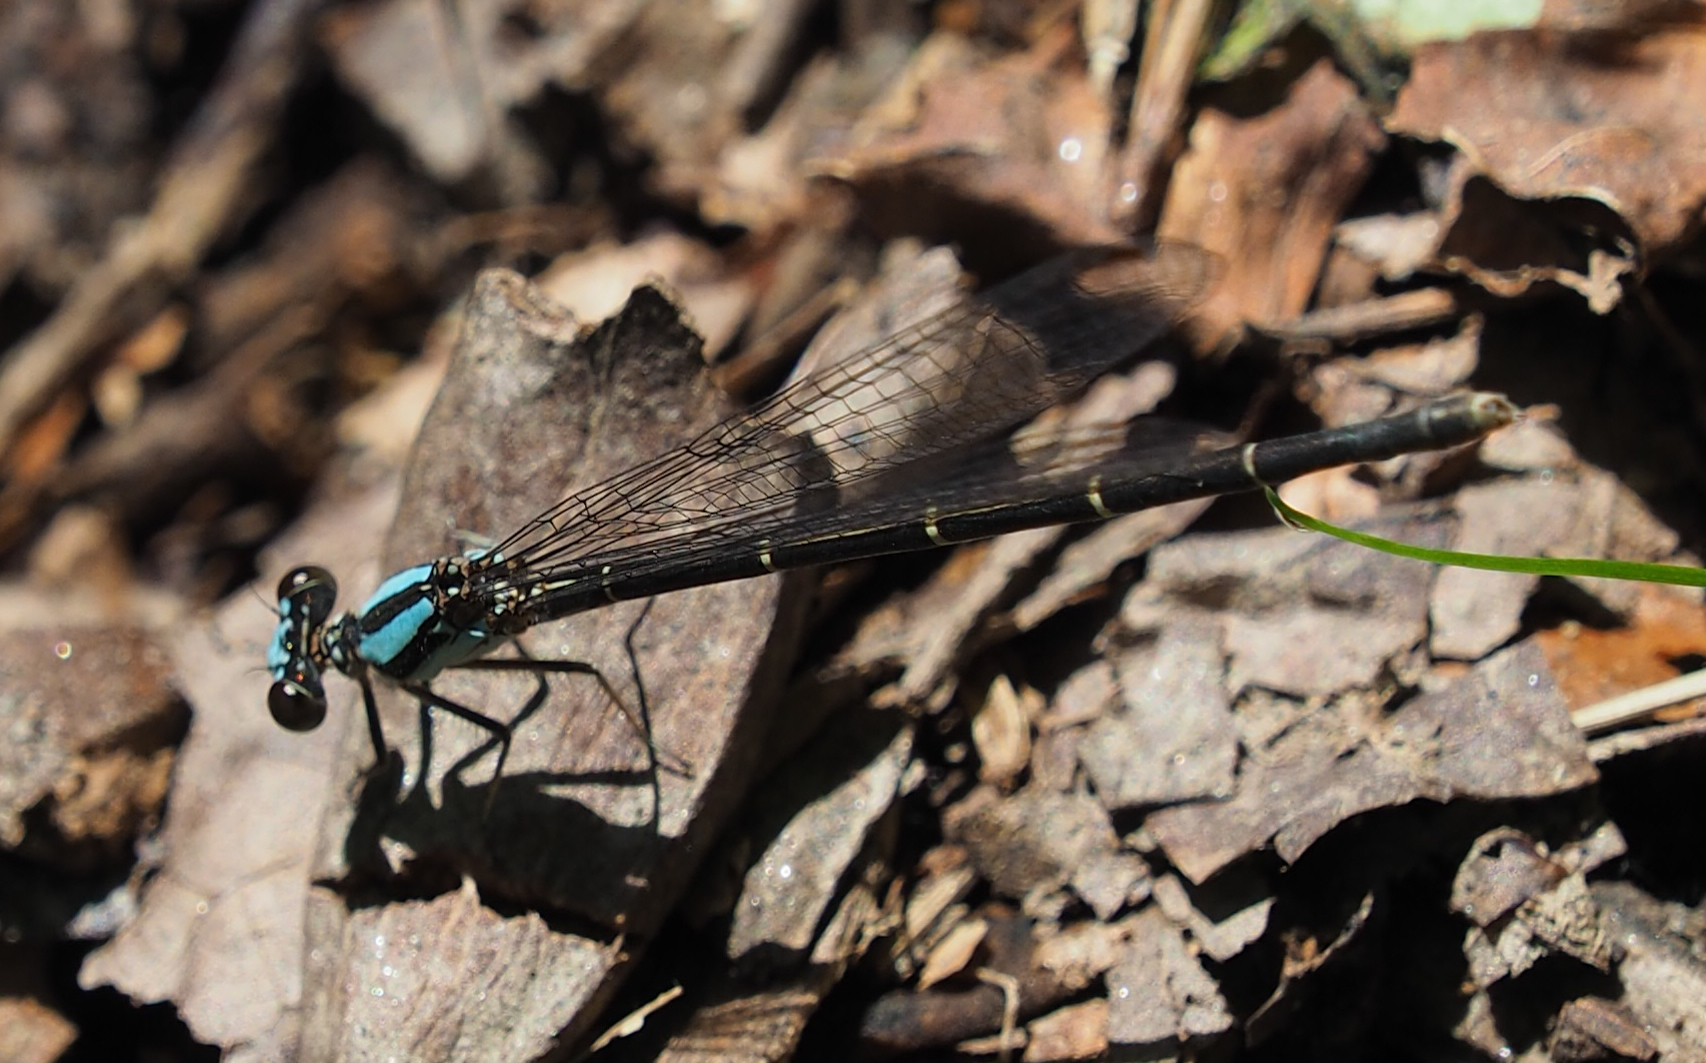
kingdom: Animalia
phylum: Arthropoda
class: Insecta
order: Odonata
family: Coenagrionidae
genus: Argia
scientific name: Argia tibialis
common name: Blue-tipped dancer
